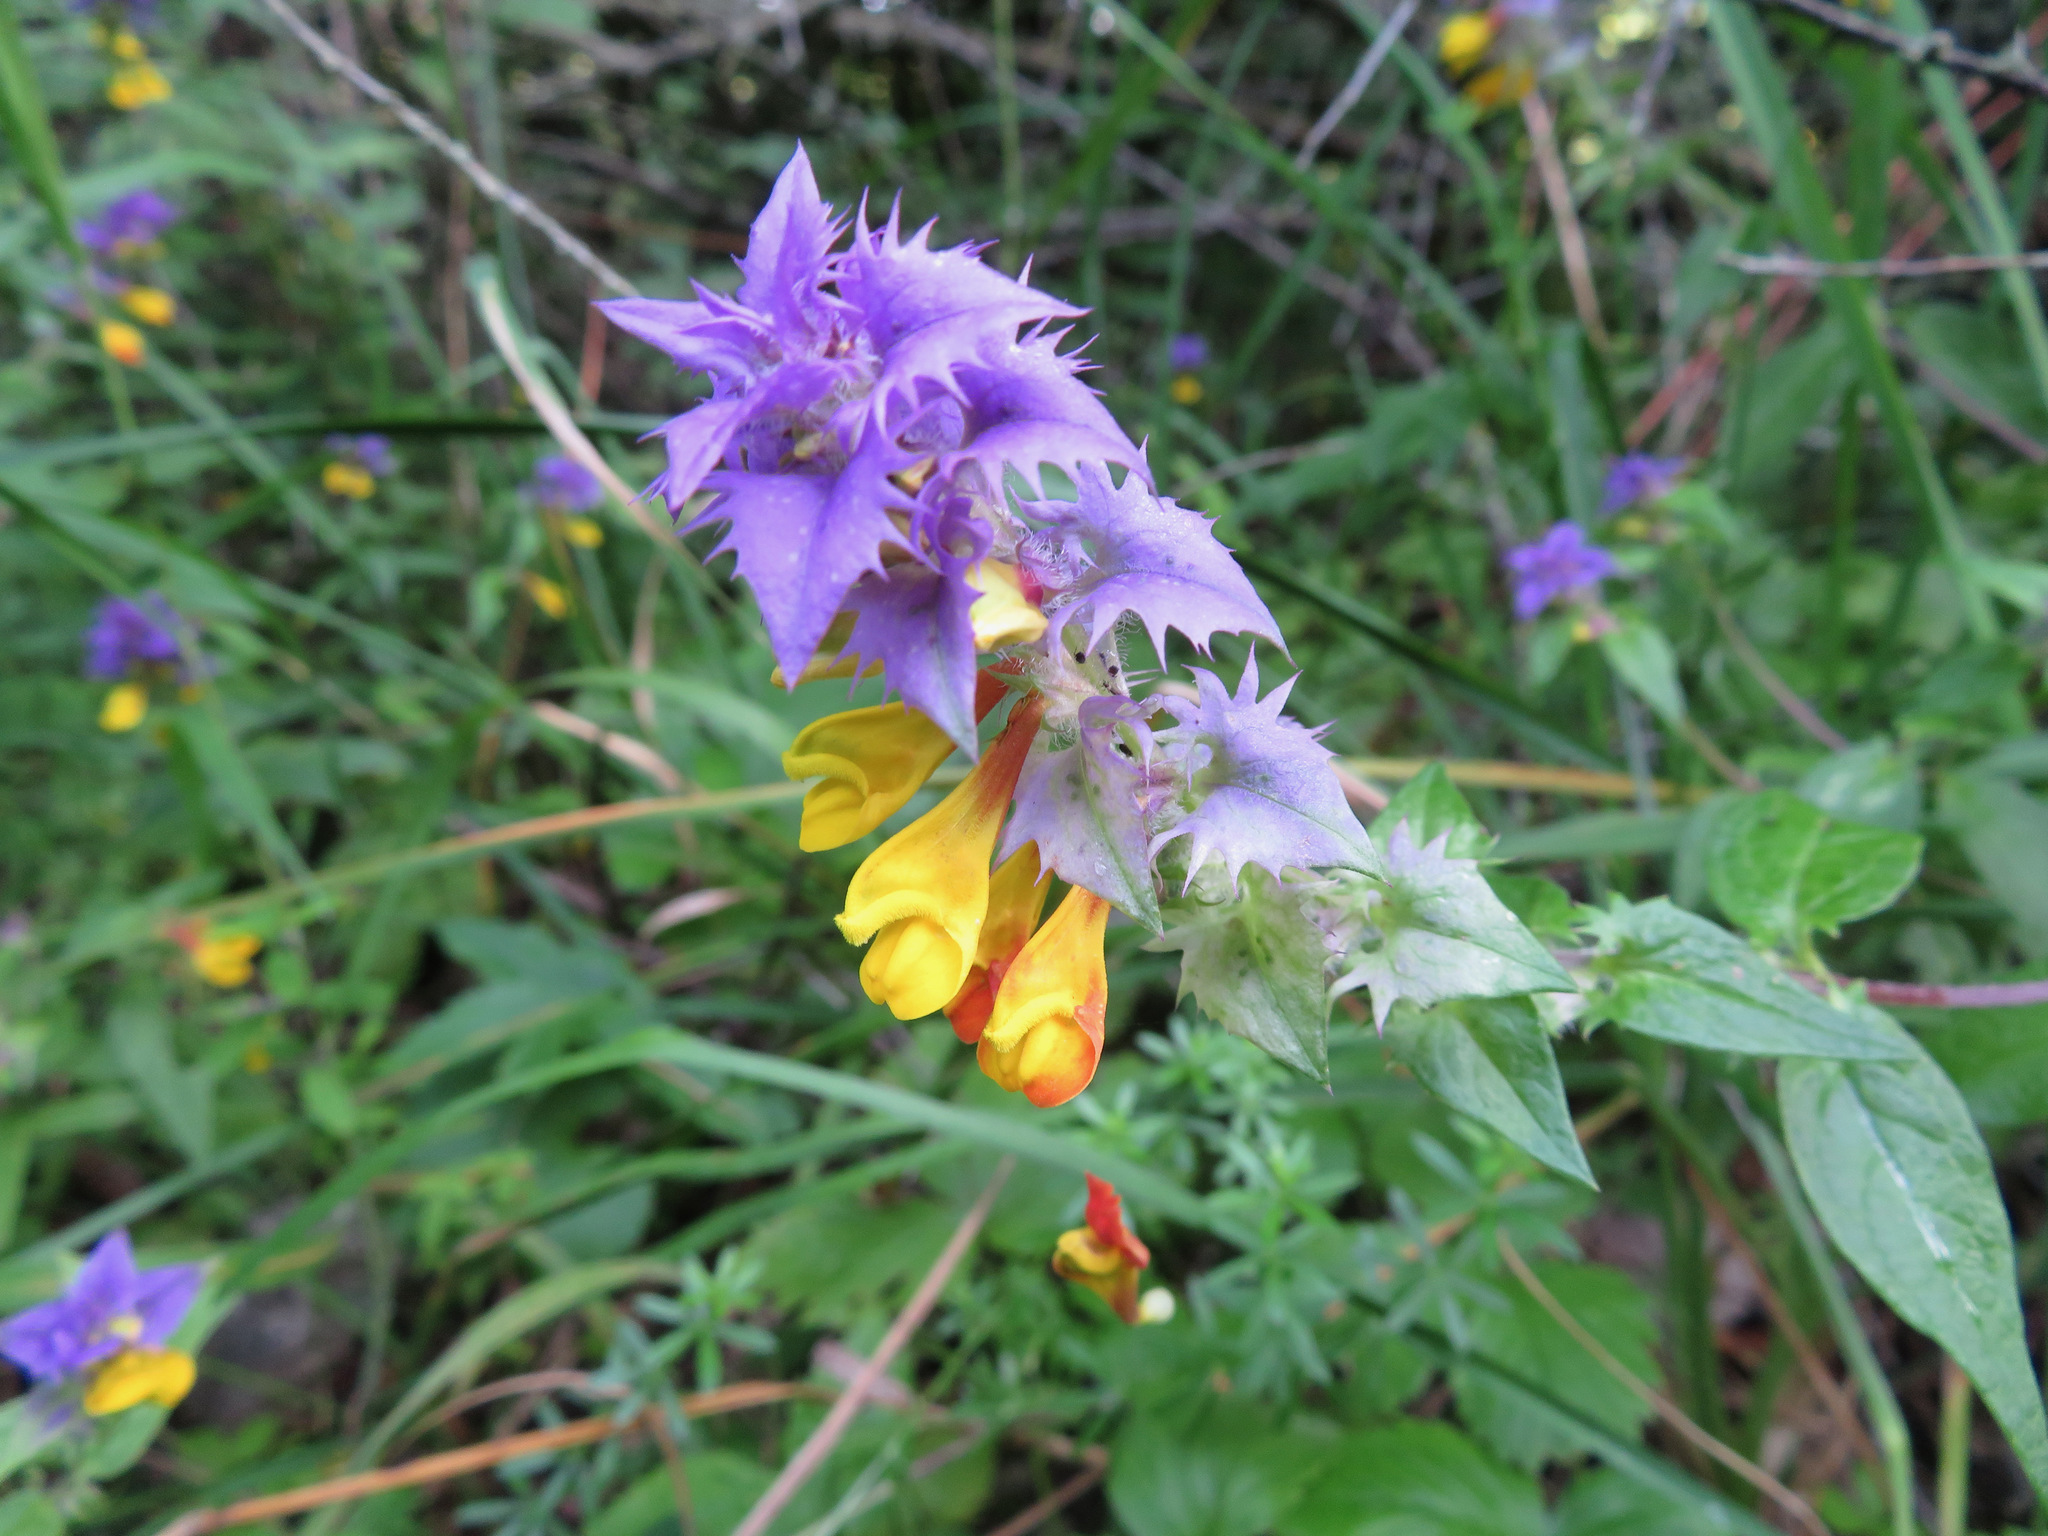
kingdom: Plantae
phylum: Tracheophyta
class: Magnoliopsida
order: Lamiales
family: Orobanchaceae
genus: Melampyrum
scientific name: Melampyrum nemorosum
